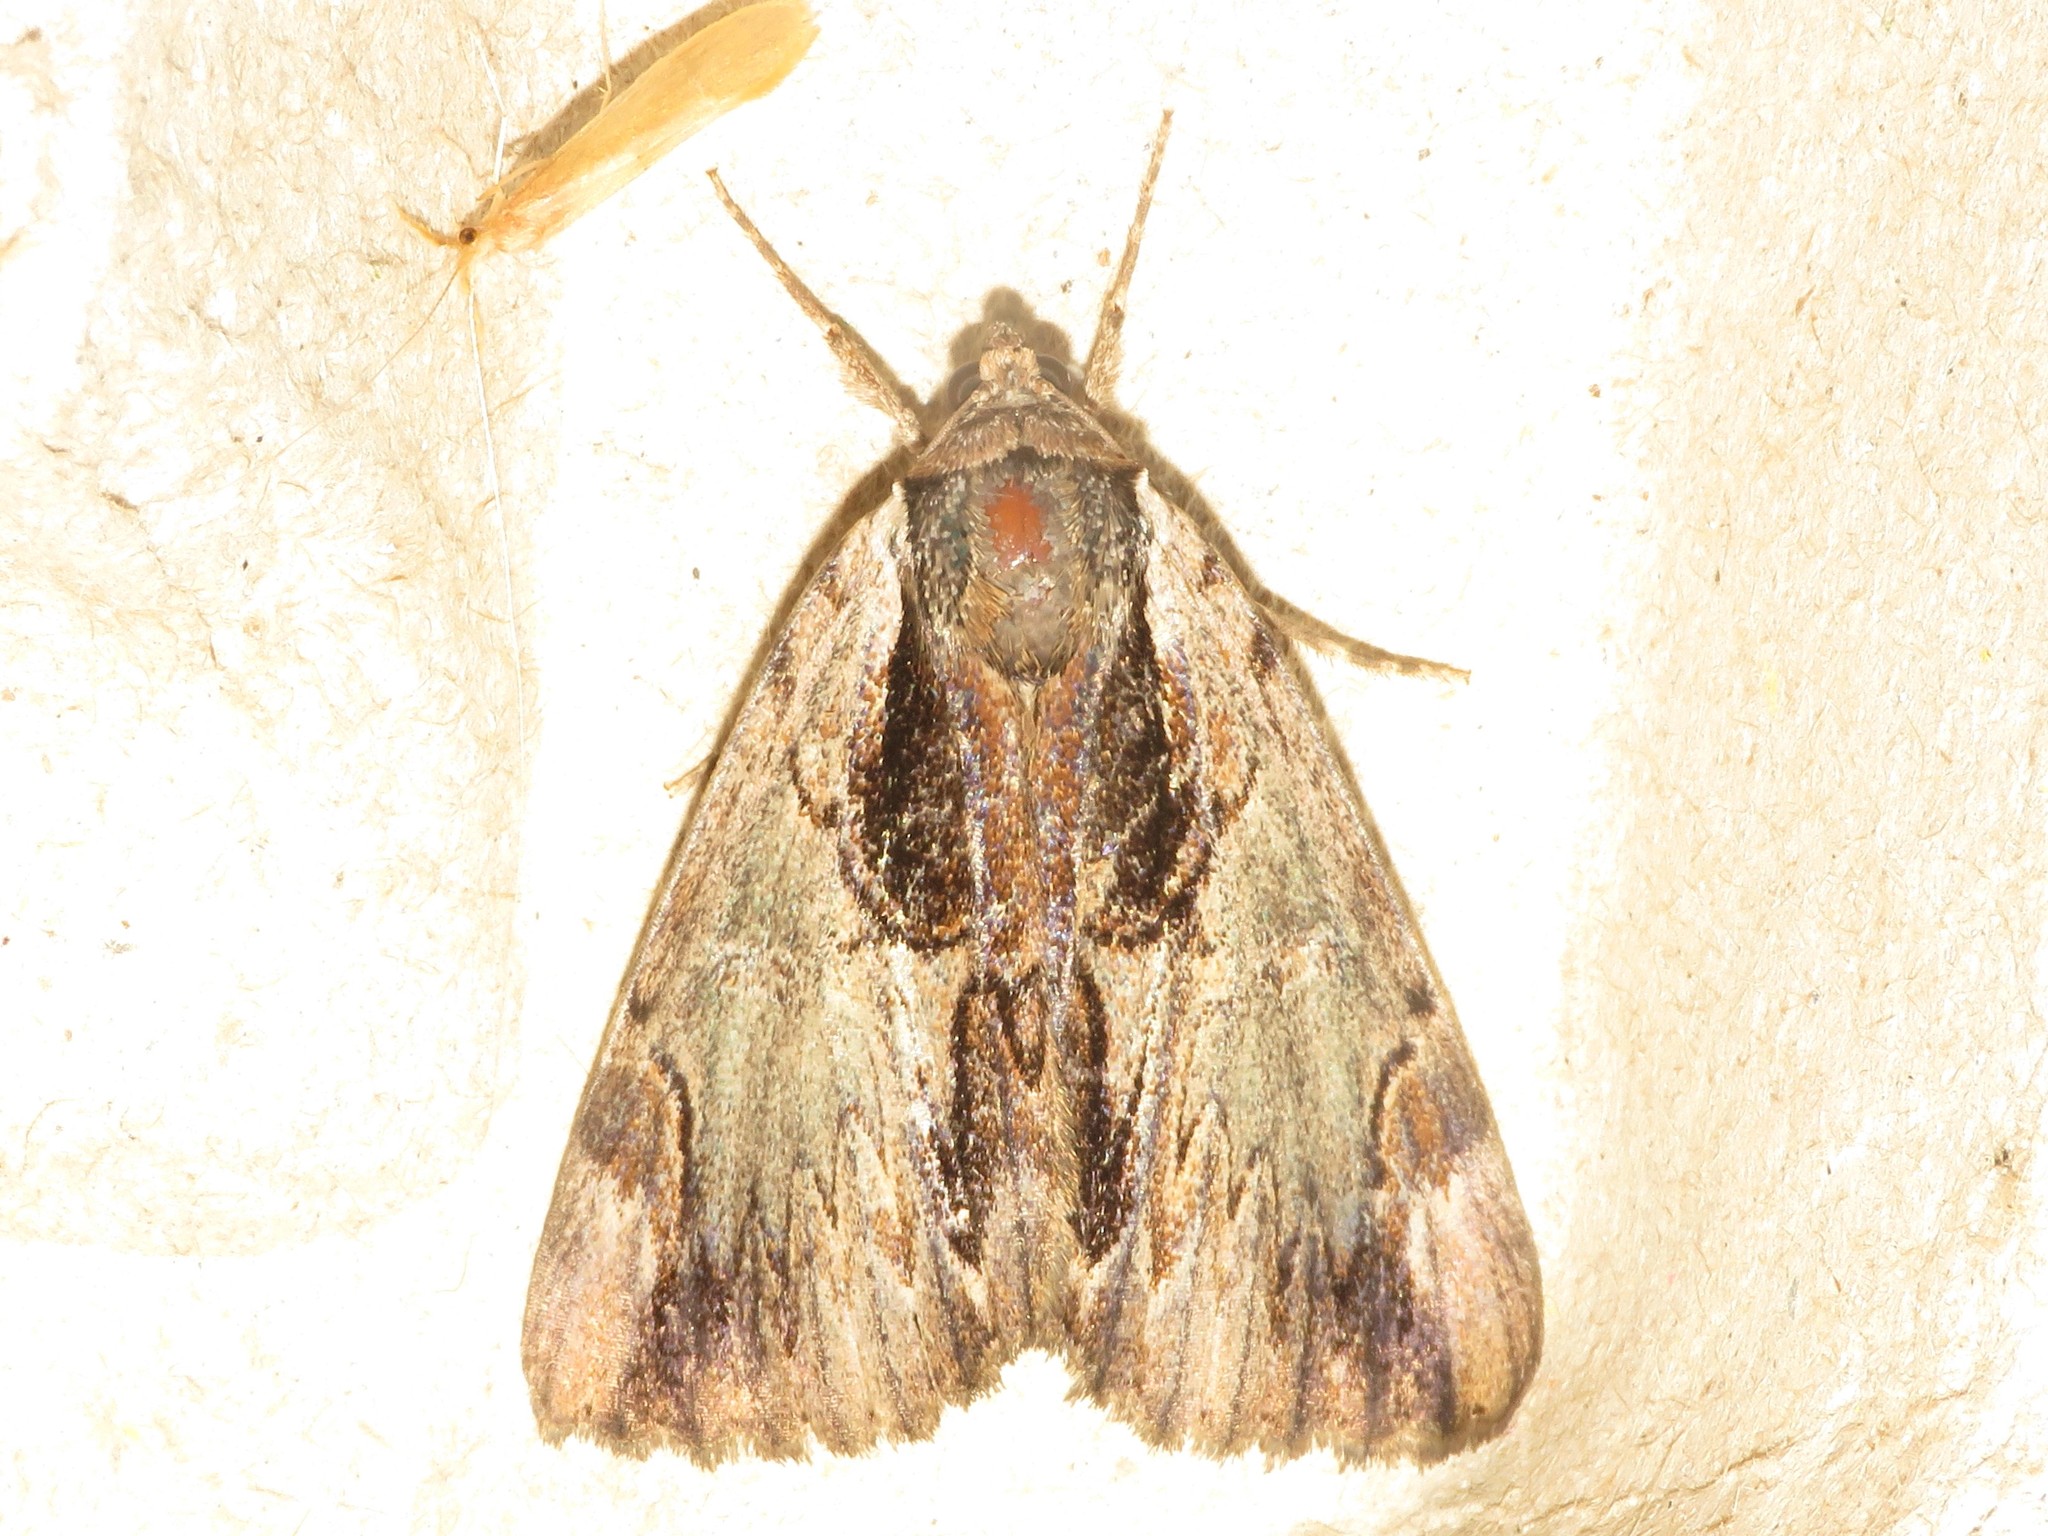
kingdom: Animalia
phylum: Arthropoda
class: Insecta
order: Lepidoptera
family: Erebidae
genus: Catocala
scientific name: Catocala ultronia
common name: Ultronia underwing
